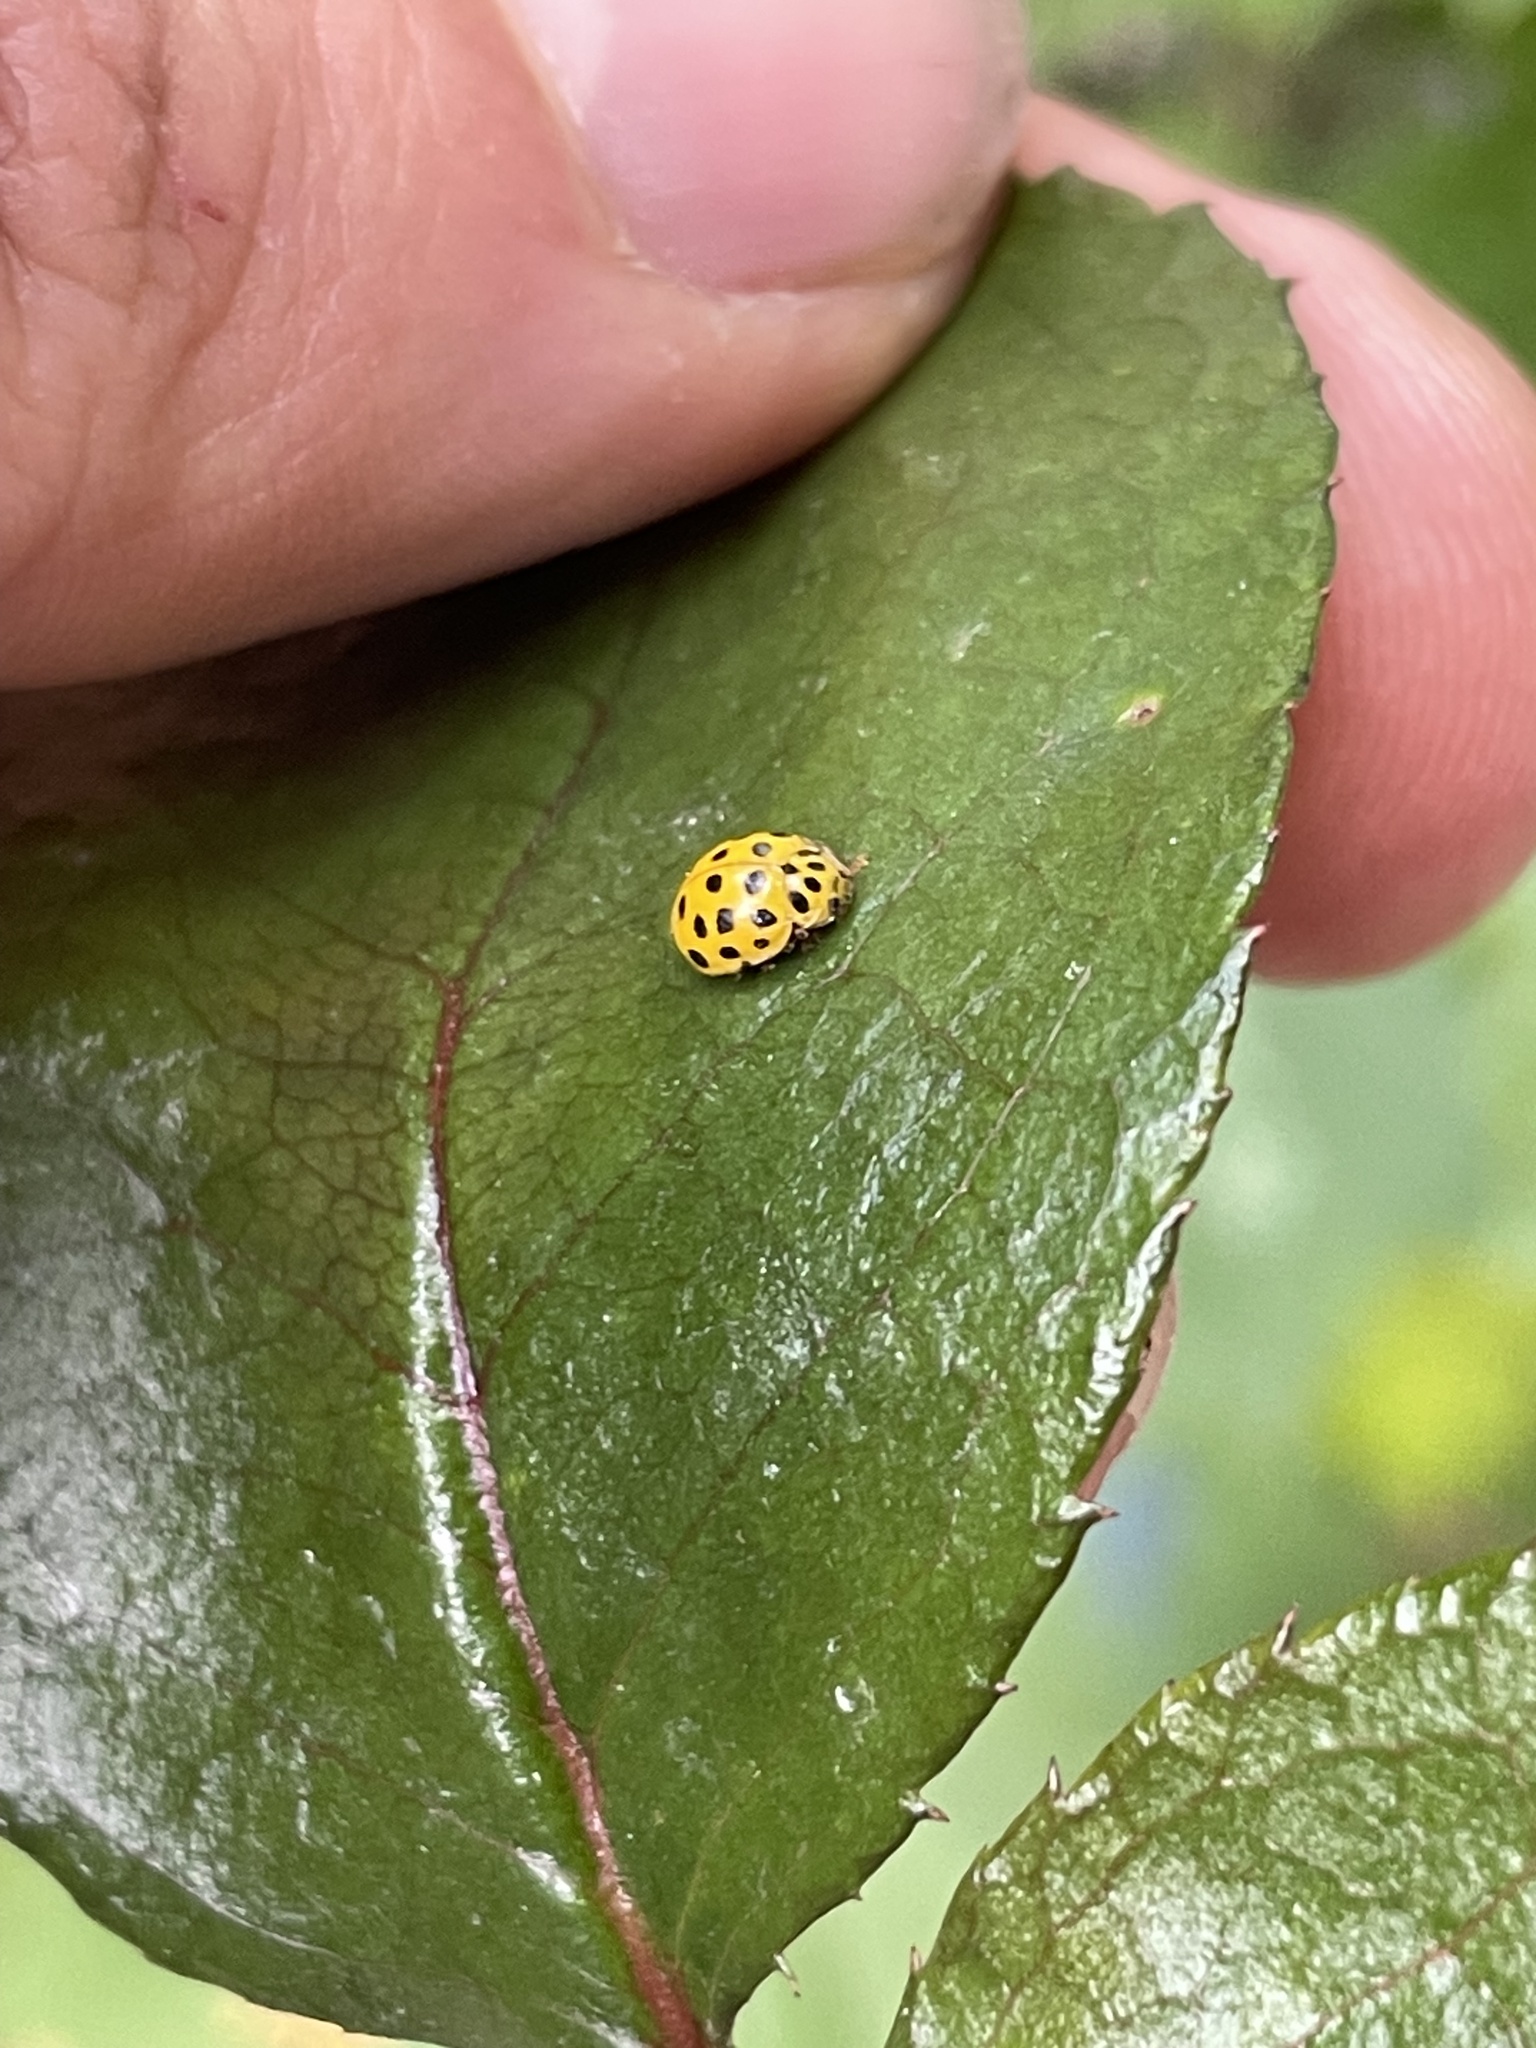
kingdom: Animalia
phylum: Arthropoda
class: Insecta
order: Coleoptera
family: Coccinellidae
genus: Psyllobora
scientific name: Psyllobora vigintiduopunctata
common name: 22-spot ladybird
